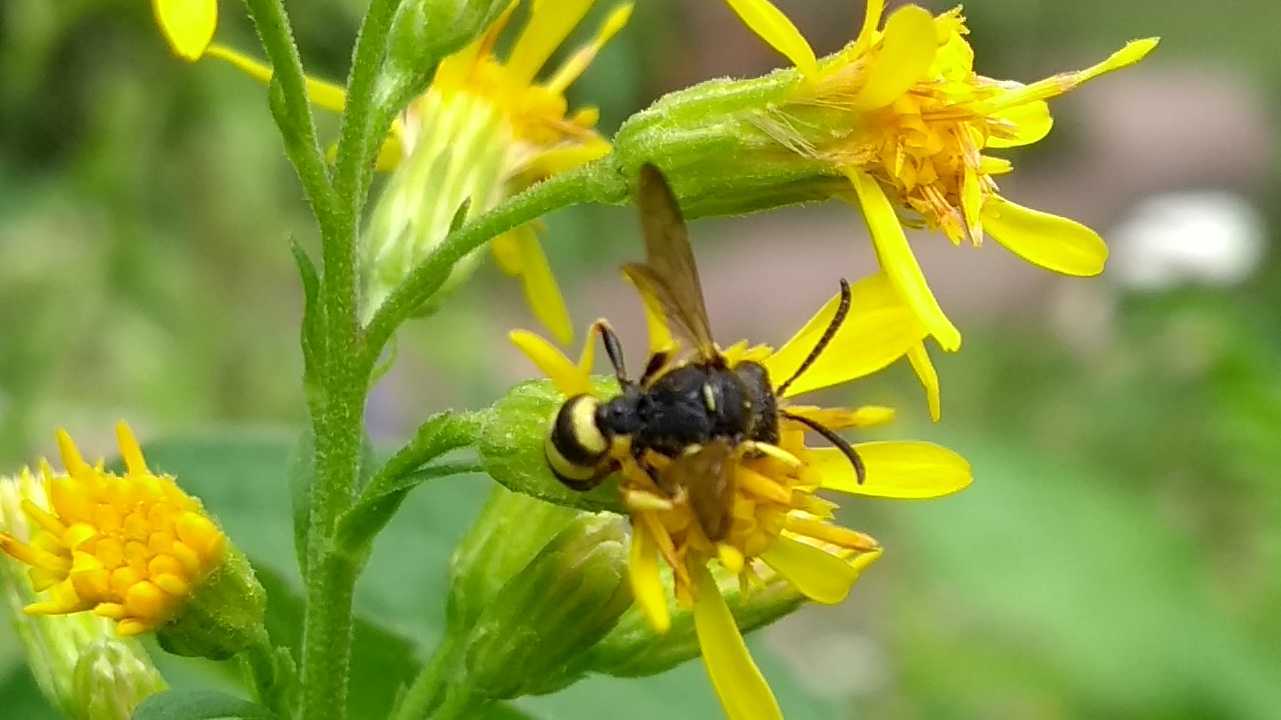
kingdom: Animalia
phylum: Arthropoda
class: Insecta
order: Hymenoptera
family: Crabronidae
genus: Cerceris
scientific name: Cerceris rybyensis
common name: Ornate tailed digger wasp
